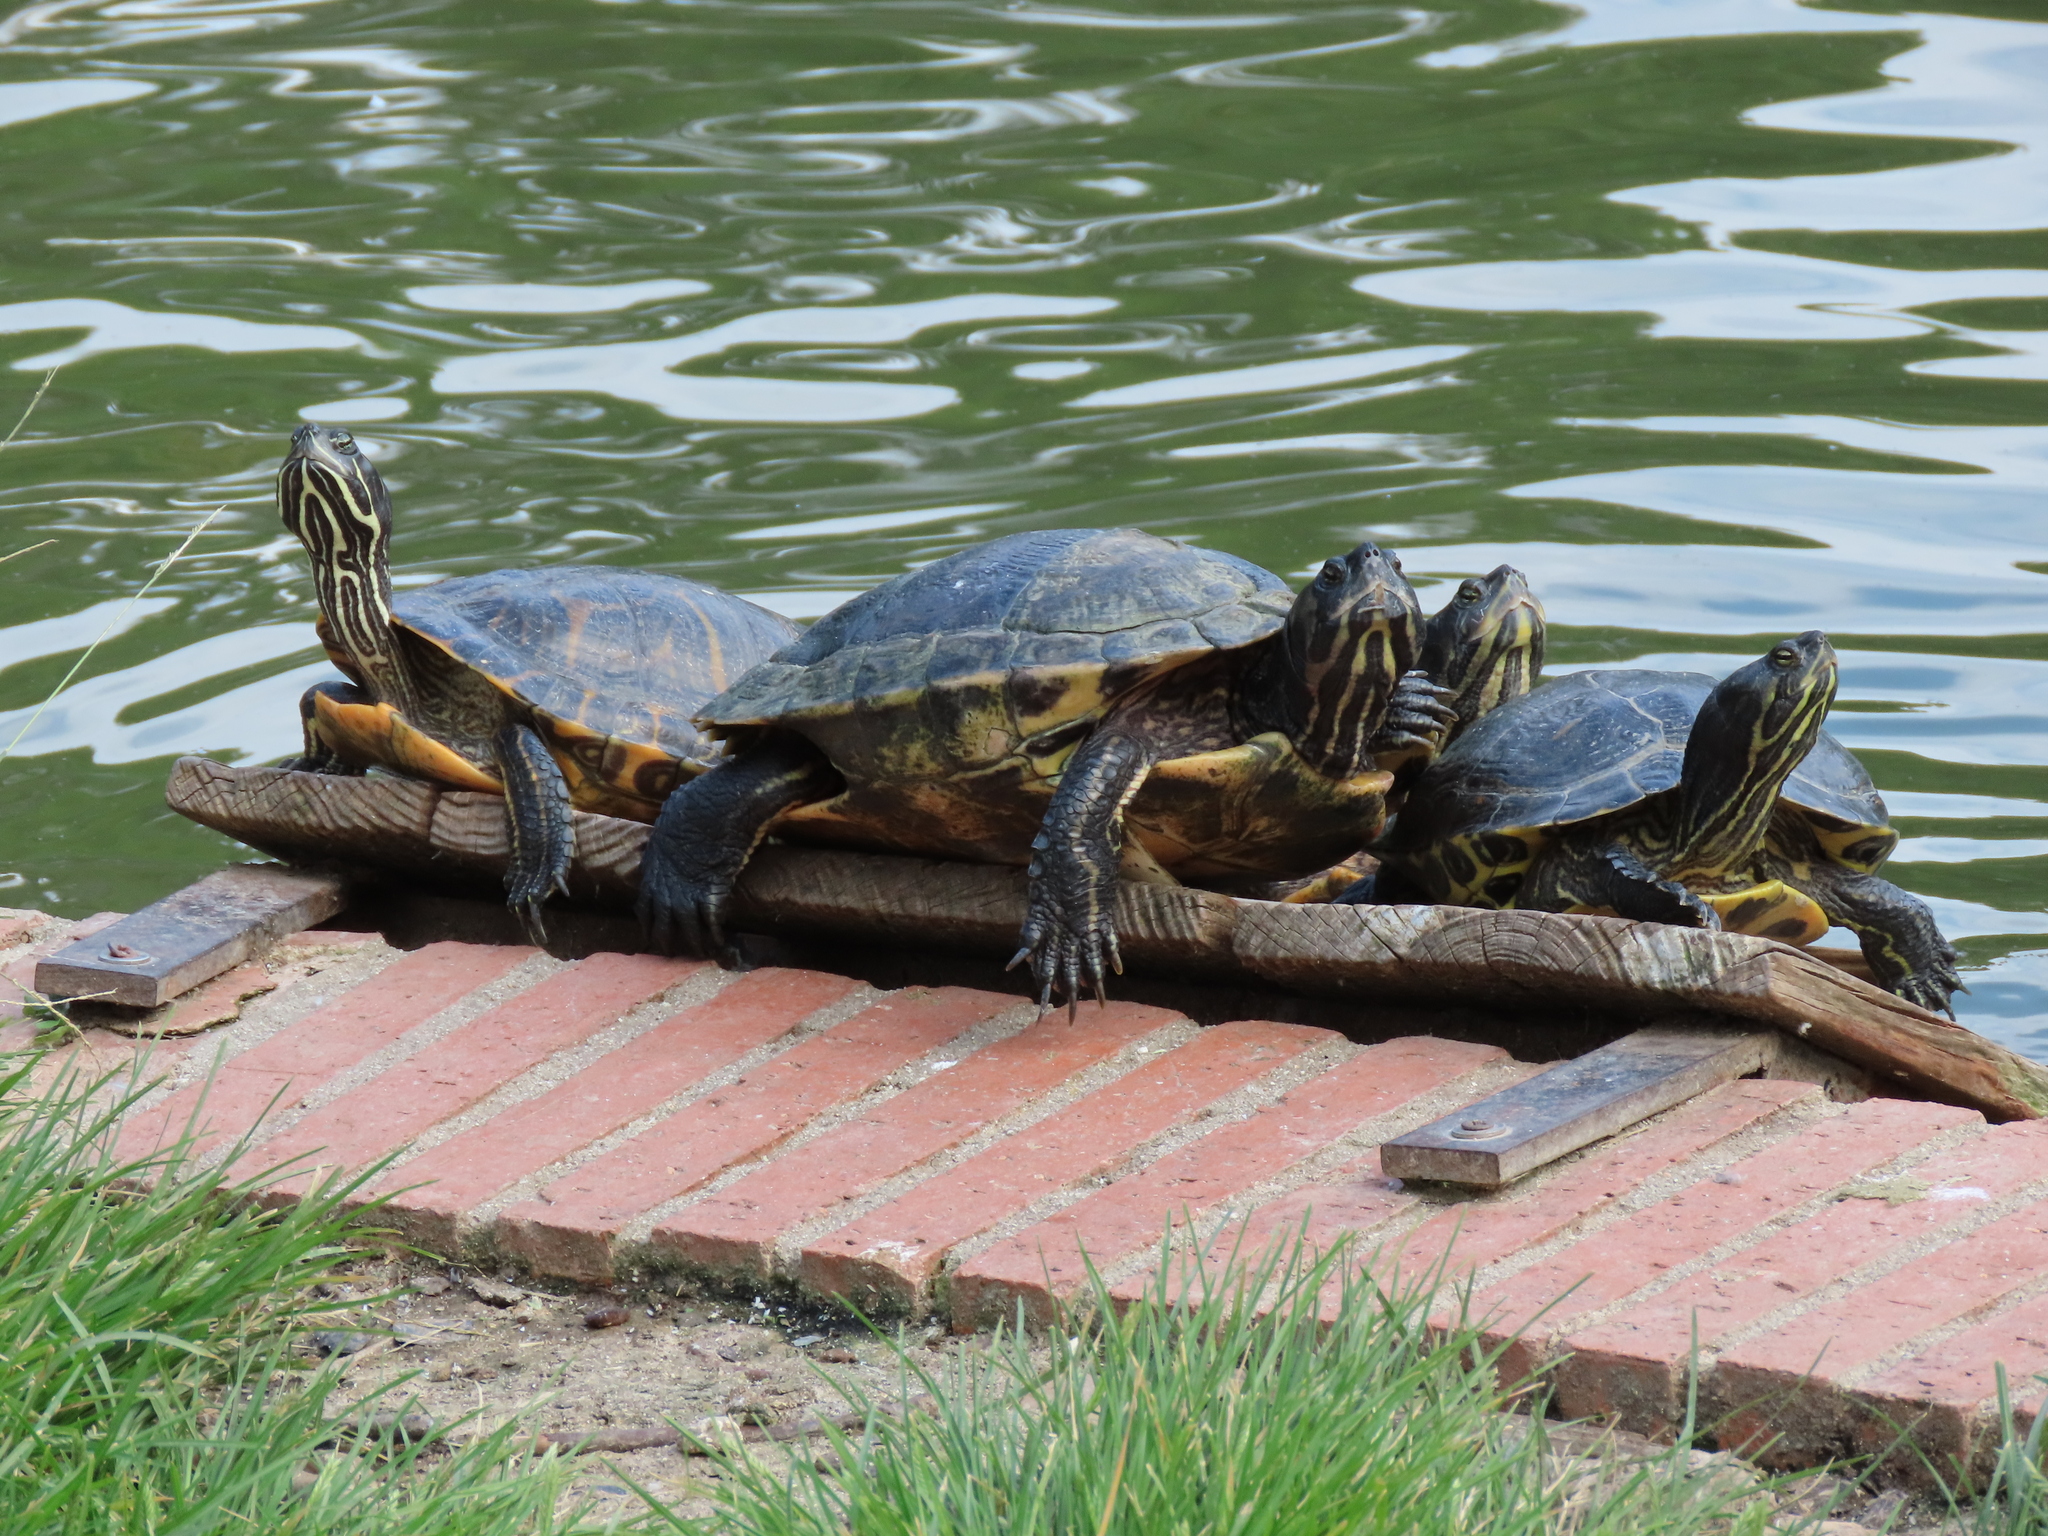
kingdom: Animalia
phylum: Chordata
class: Testudines
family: Emydidae
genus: Trachemys
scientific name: Trachemys scripta
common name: Slider
